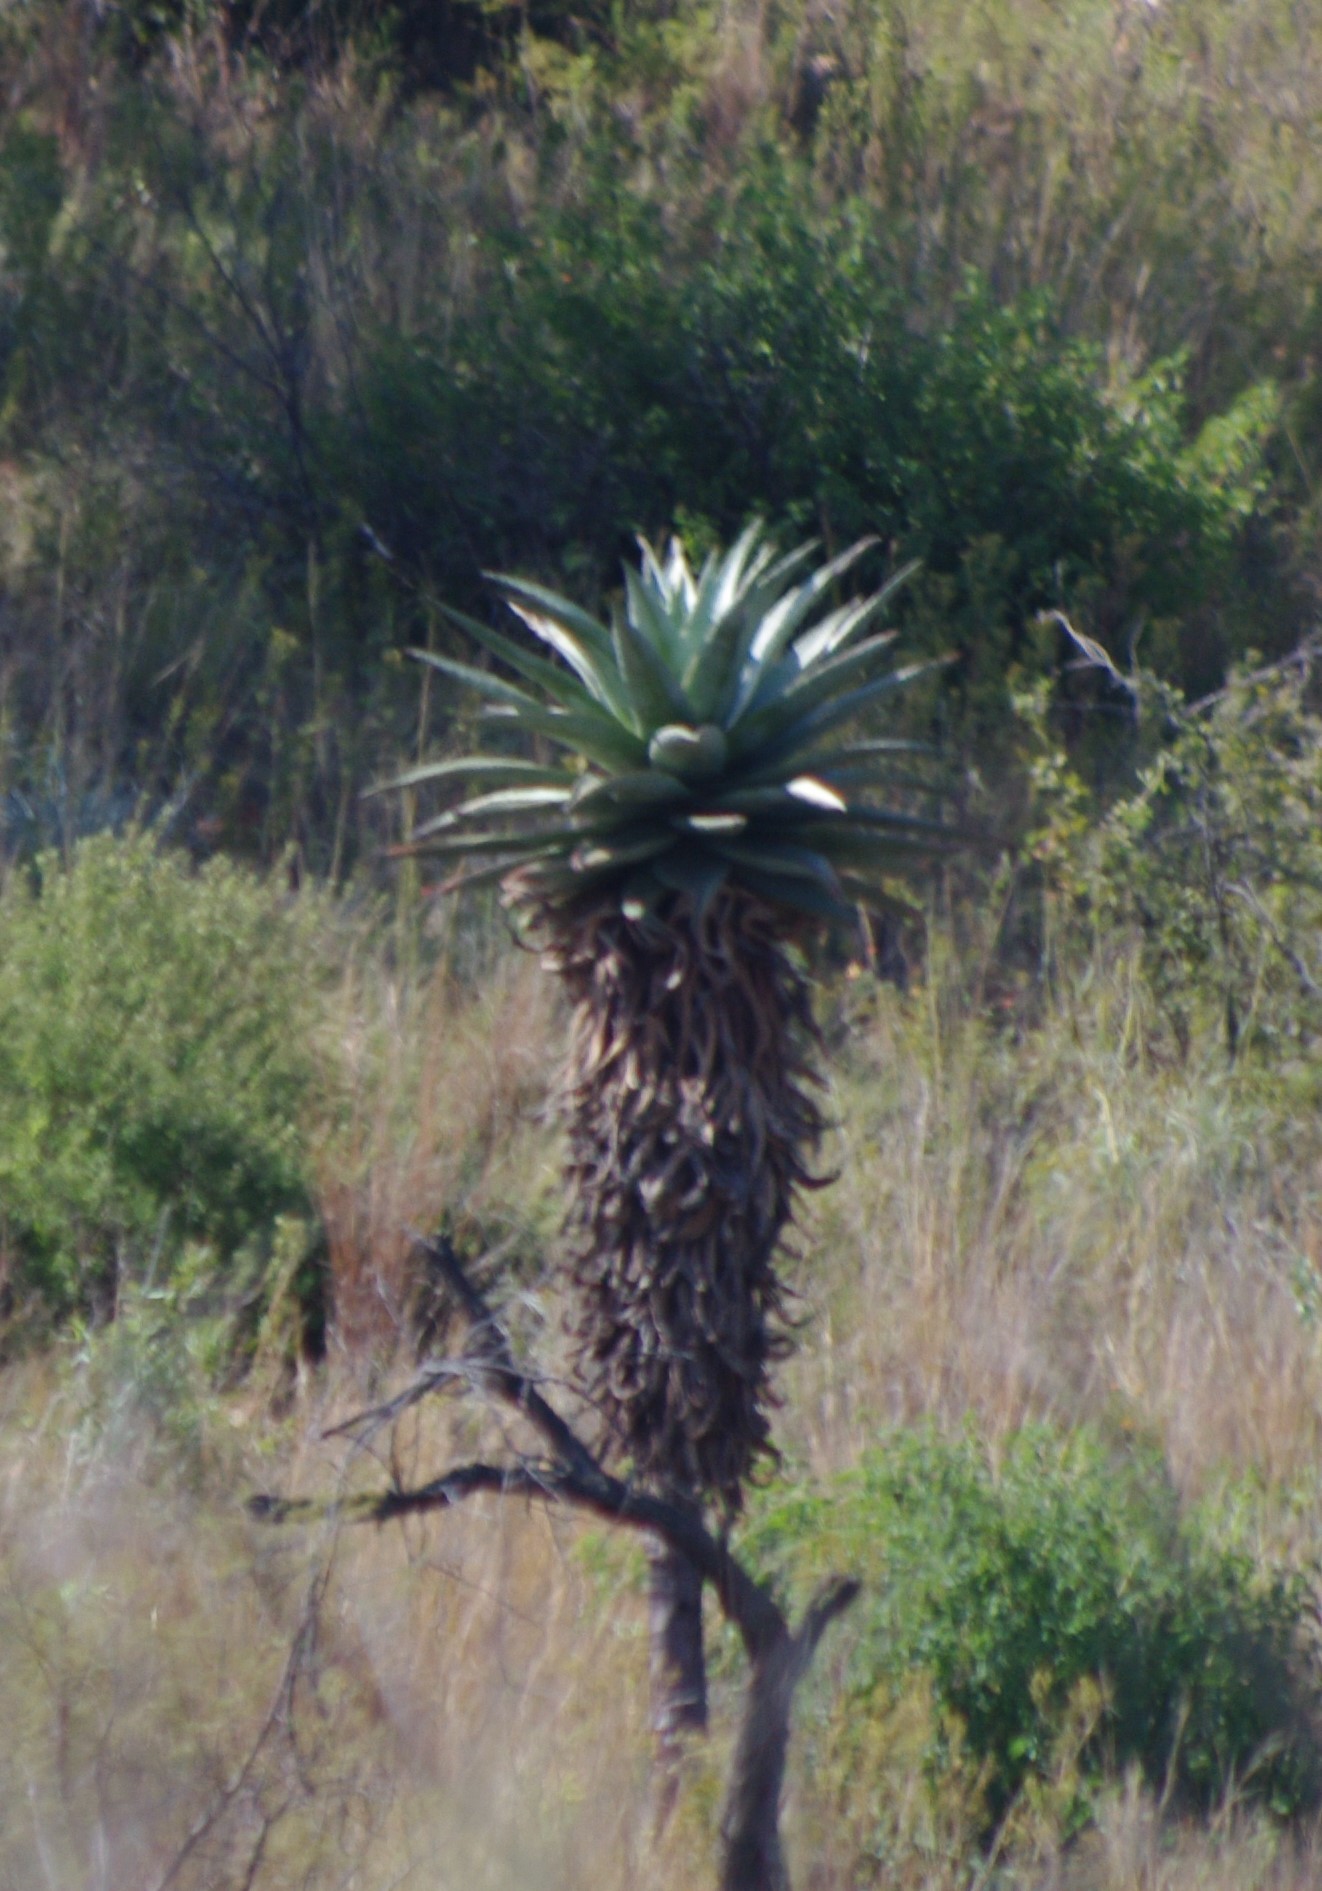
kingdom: Plantae
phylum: Tracheophyta
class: Liliopsida
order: Asparagales
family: Asphodelaceae
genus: Aloe
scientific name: Aloe marlothii
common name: Flat-flowered aloe
